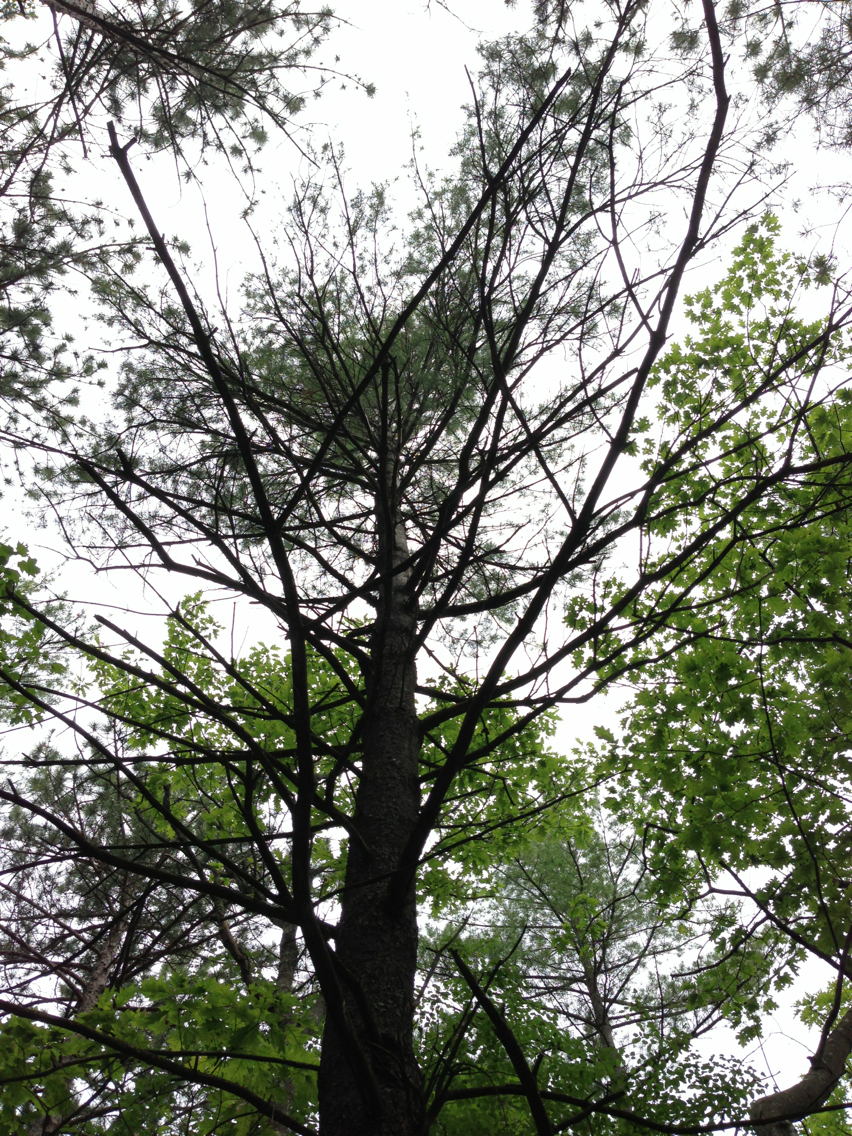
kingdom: Plantae
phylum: Tracheophyta
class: Pinopsida
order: Pinales
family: Pinaceae
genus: Pinus
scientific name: Pinus strobus
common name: Weymouth pine
